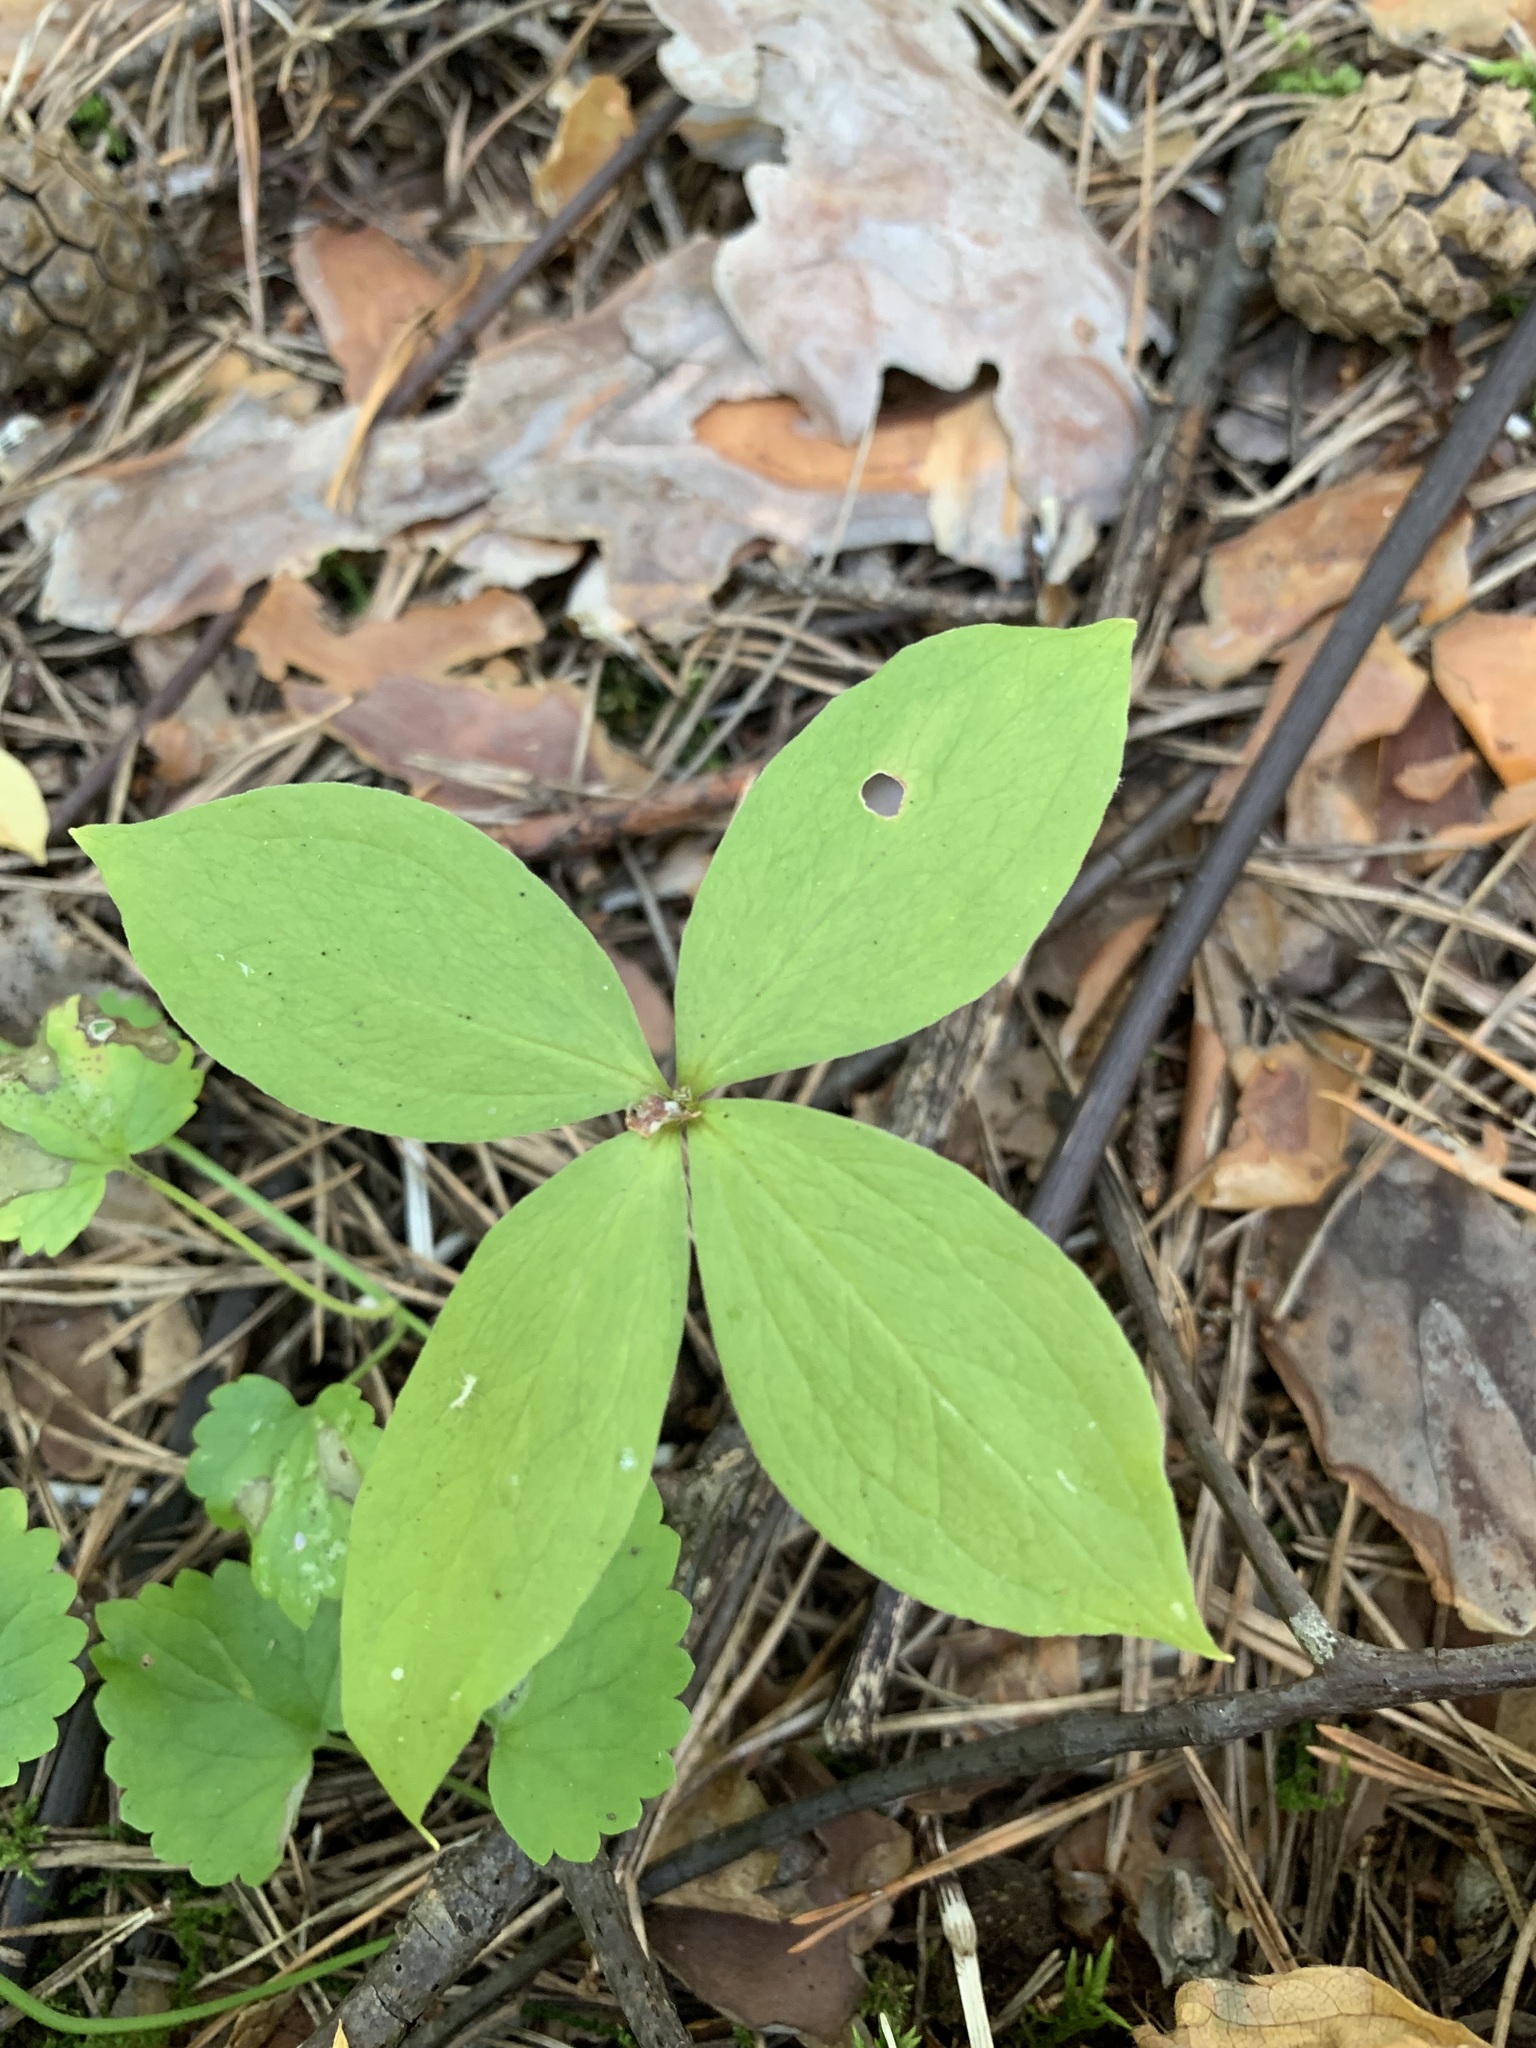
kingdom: Plantae
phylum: Tracheophyta
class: Liliopsida
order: Liliales
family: Melanthiaceae
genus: Paris
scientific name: Paris quadrifolia
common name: Herb-paris
